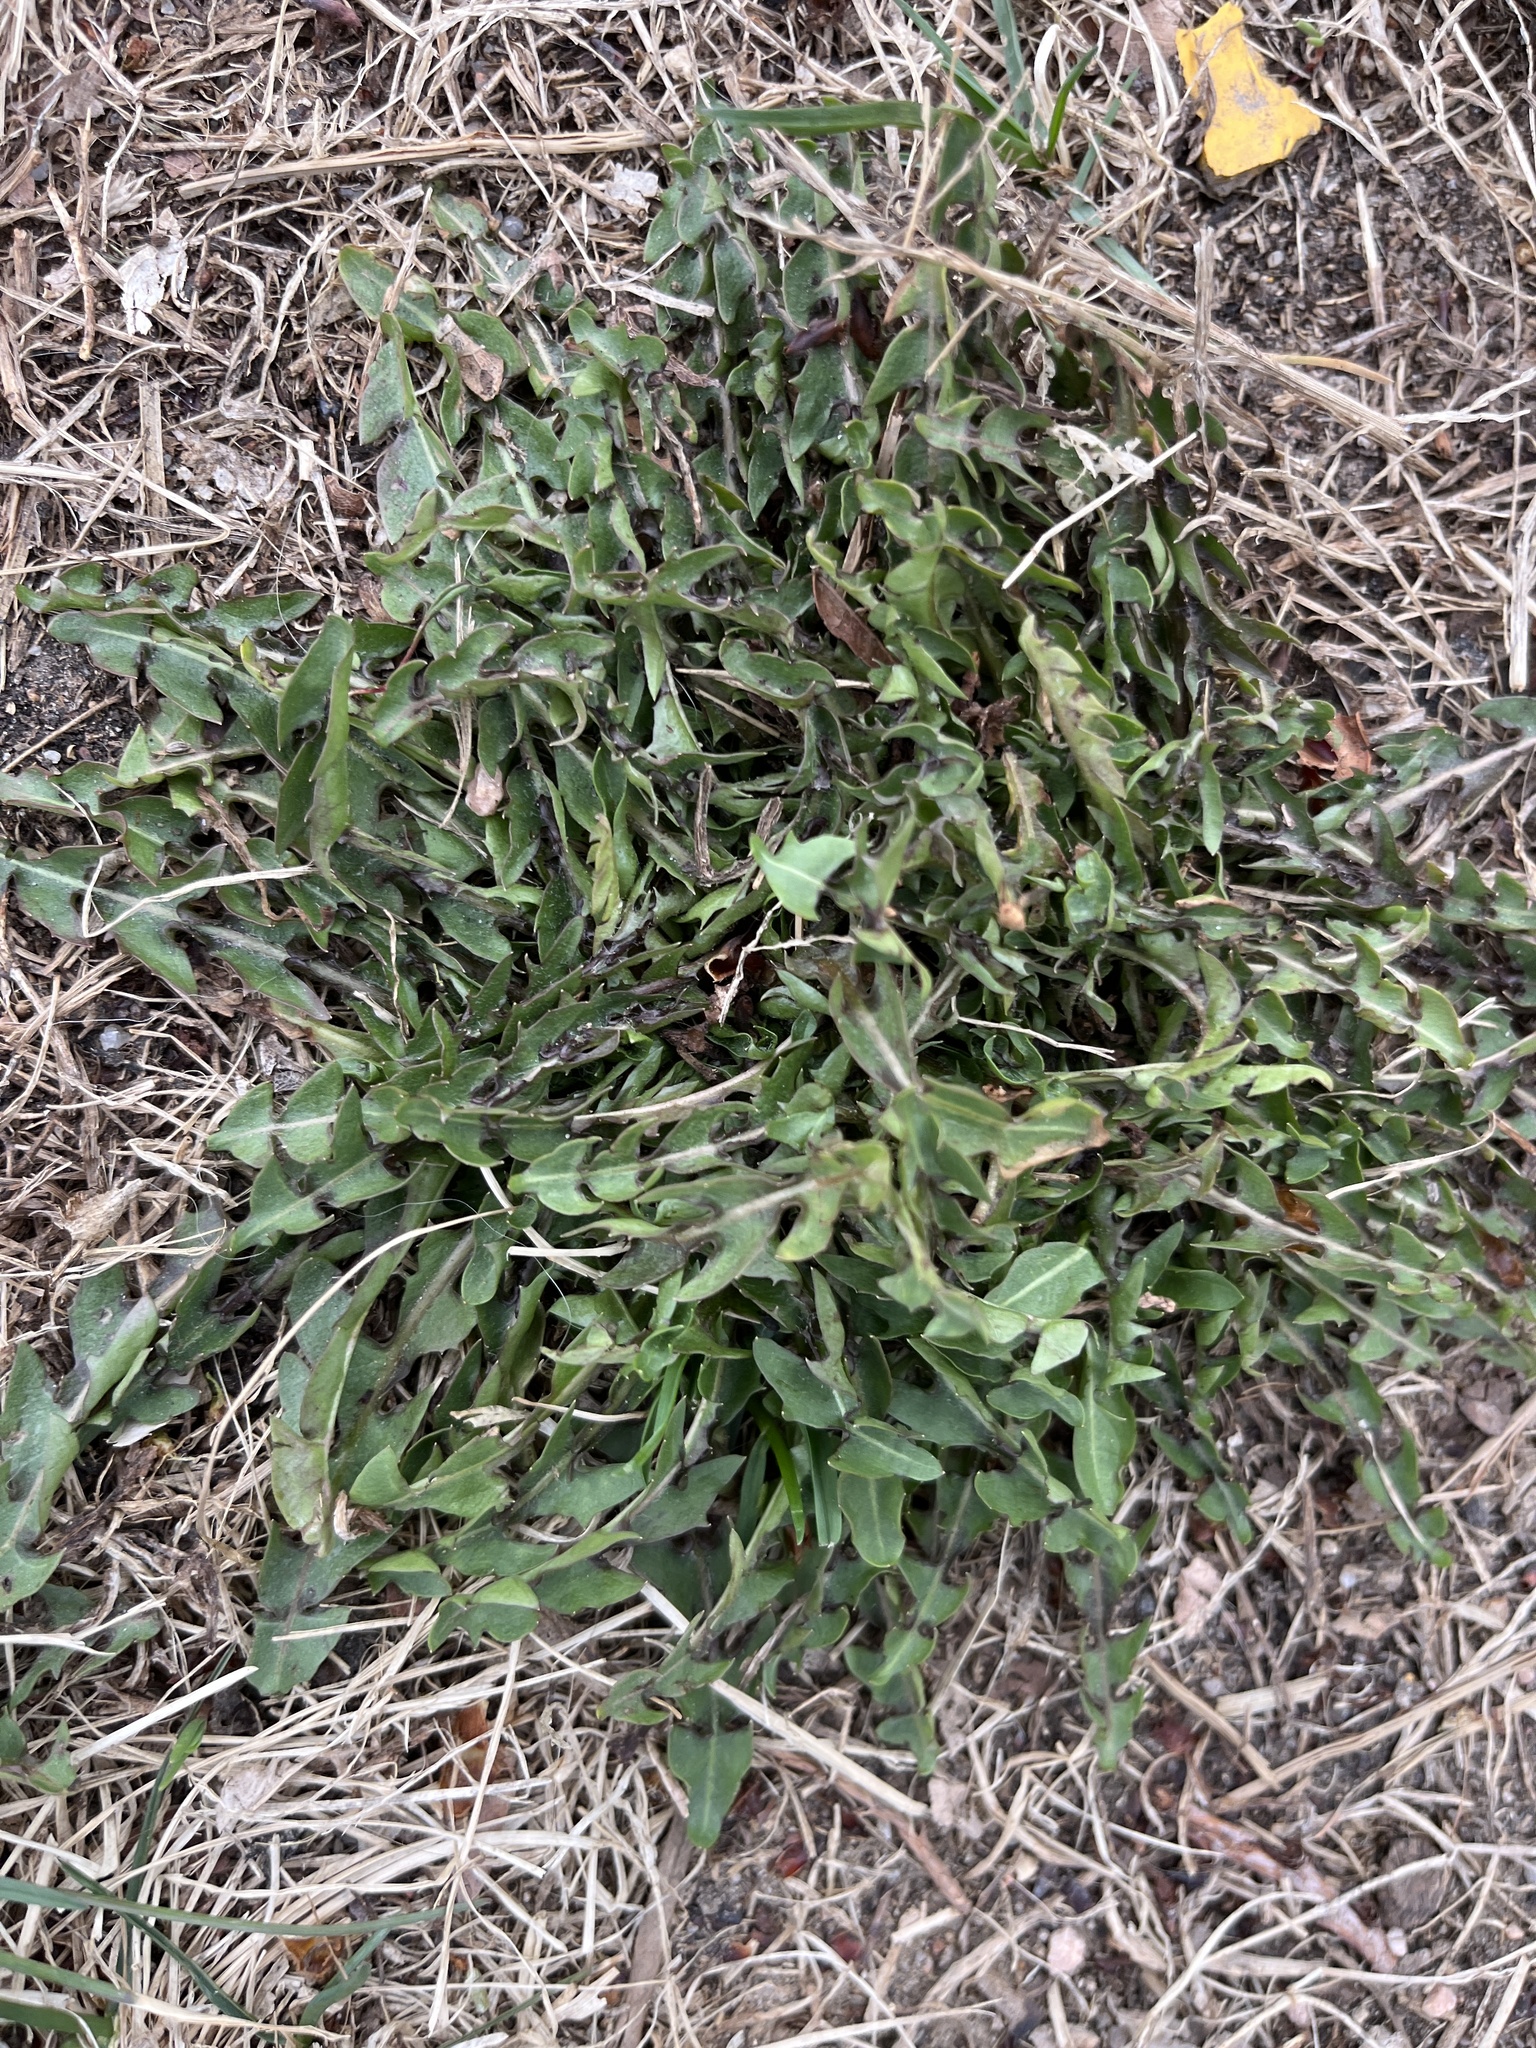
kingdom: Plantae
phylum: Tracheophyta
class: Magnoliopsida
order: Asterales
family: Asteraceae
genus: Taraxacum
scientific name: Taraxacum officinale
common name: Common dandelion
